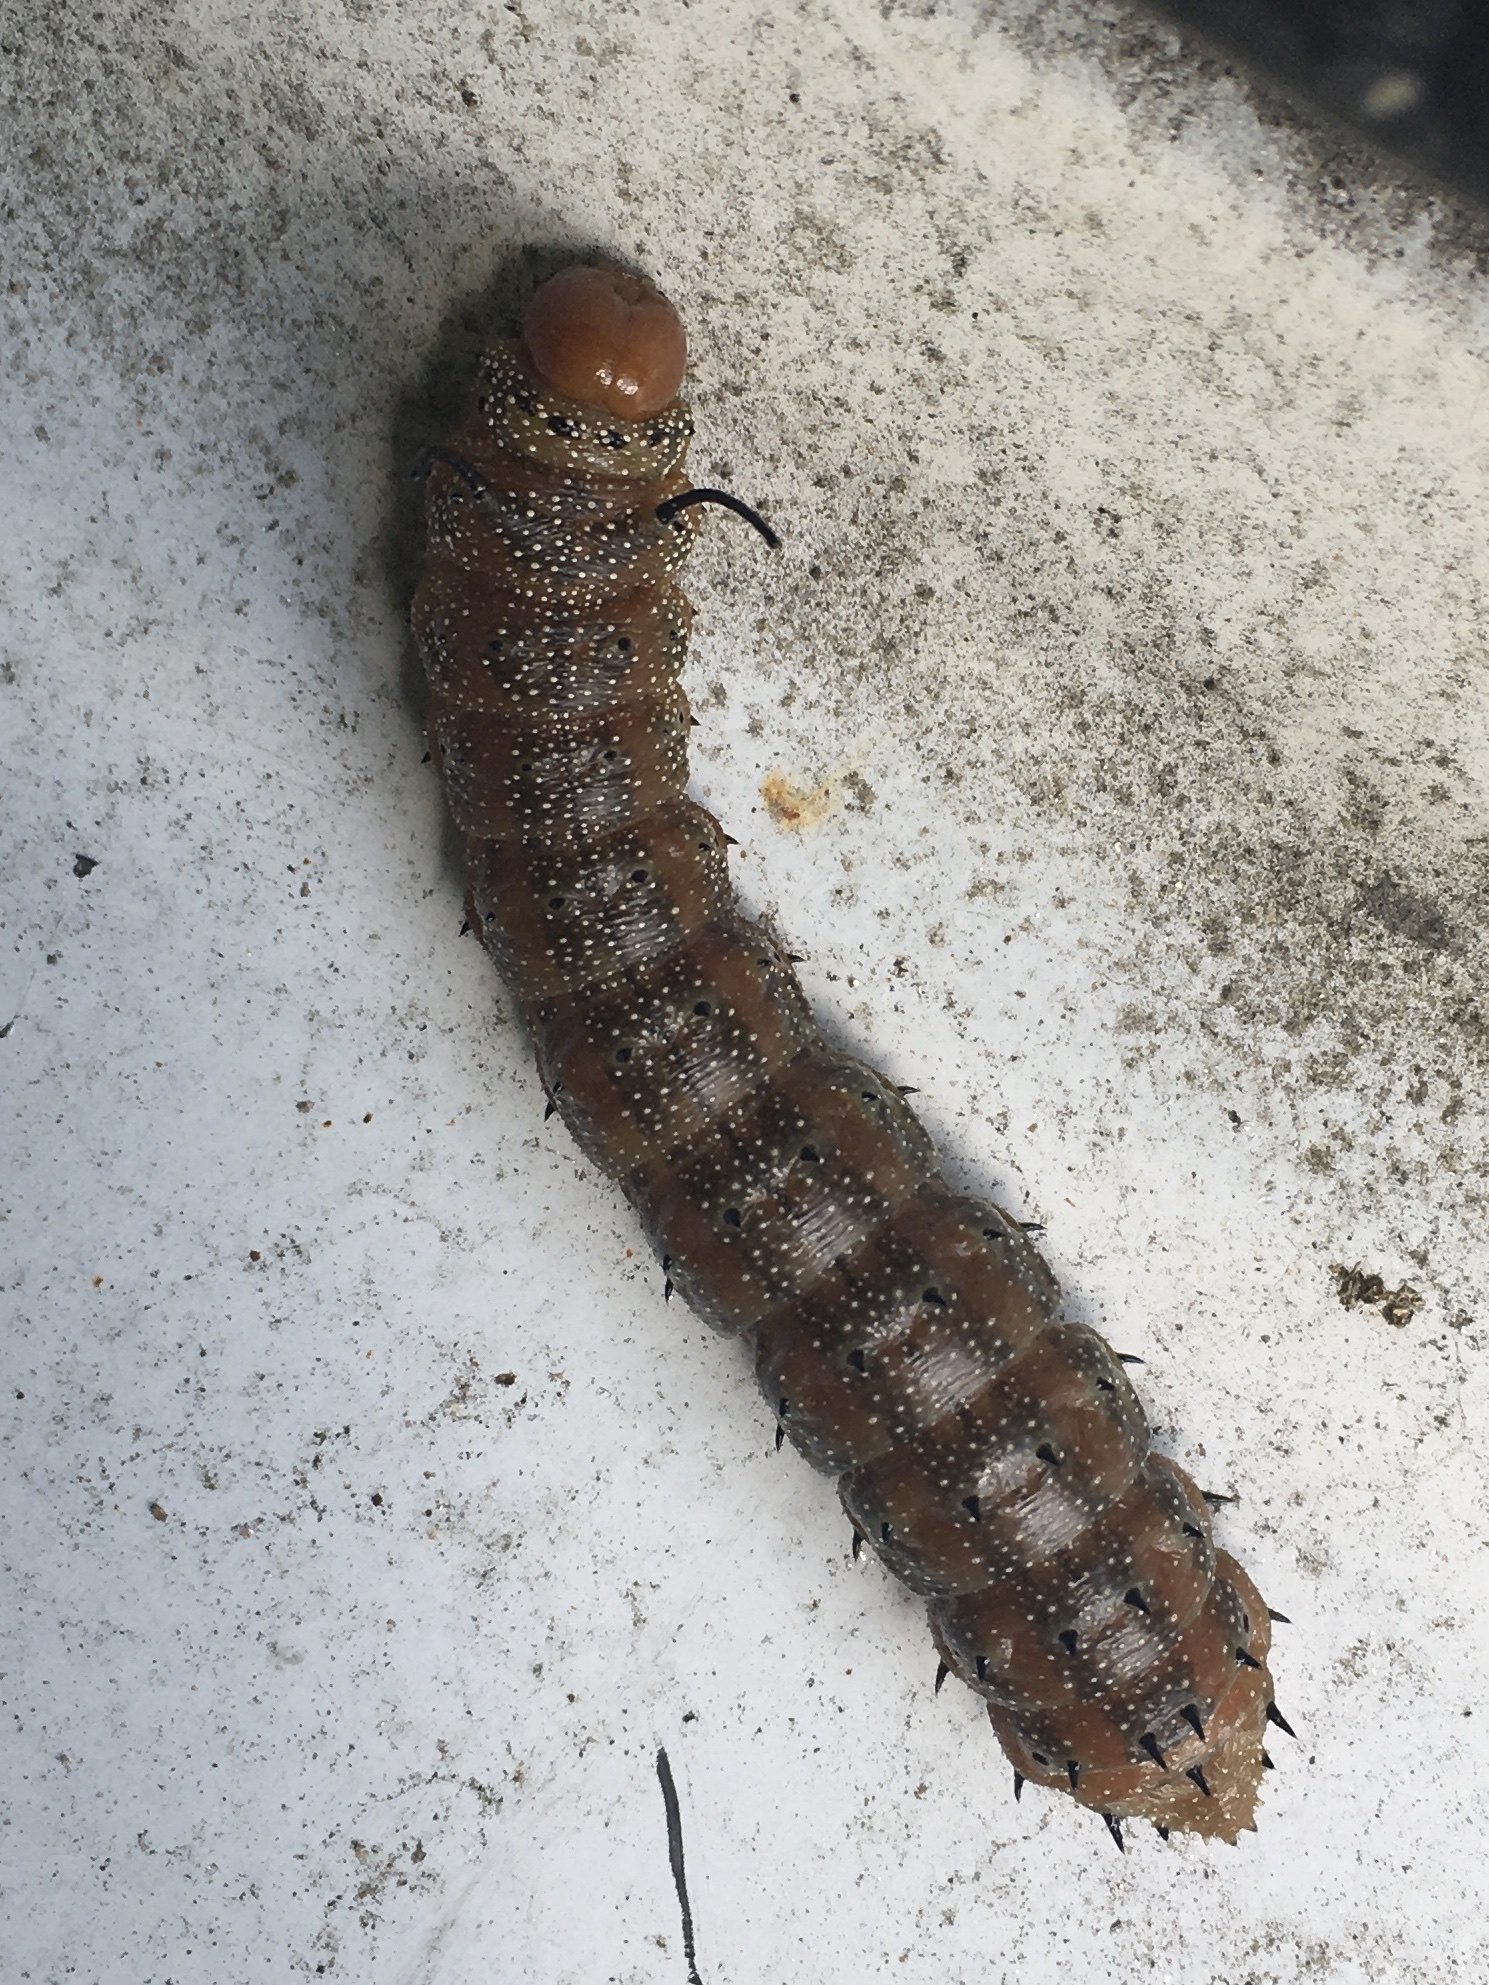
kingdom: Animalia
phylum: Arthropoda
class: Insecta
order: Lepidoptera
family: Saturniidae
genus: Anisota
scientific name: Anisota stigma
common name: Spiny oakworm moth
